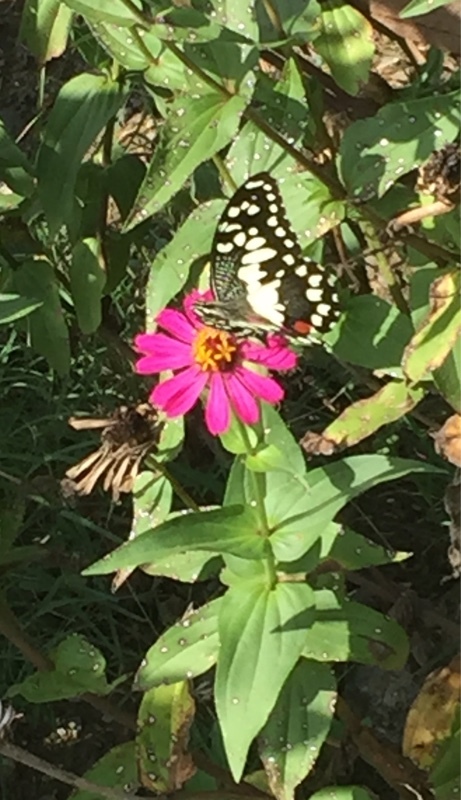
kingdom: Animalia
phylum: Arthropoda
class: Insecta
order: Lepidoptera
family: Papilionidae
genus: Papilio
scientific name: Papilio demoleus
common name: Lime butterfly
